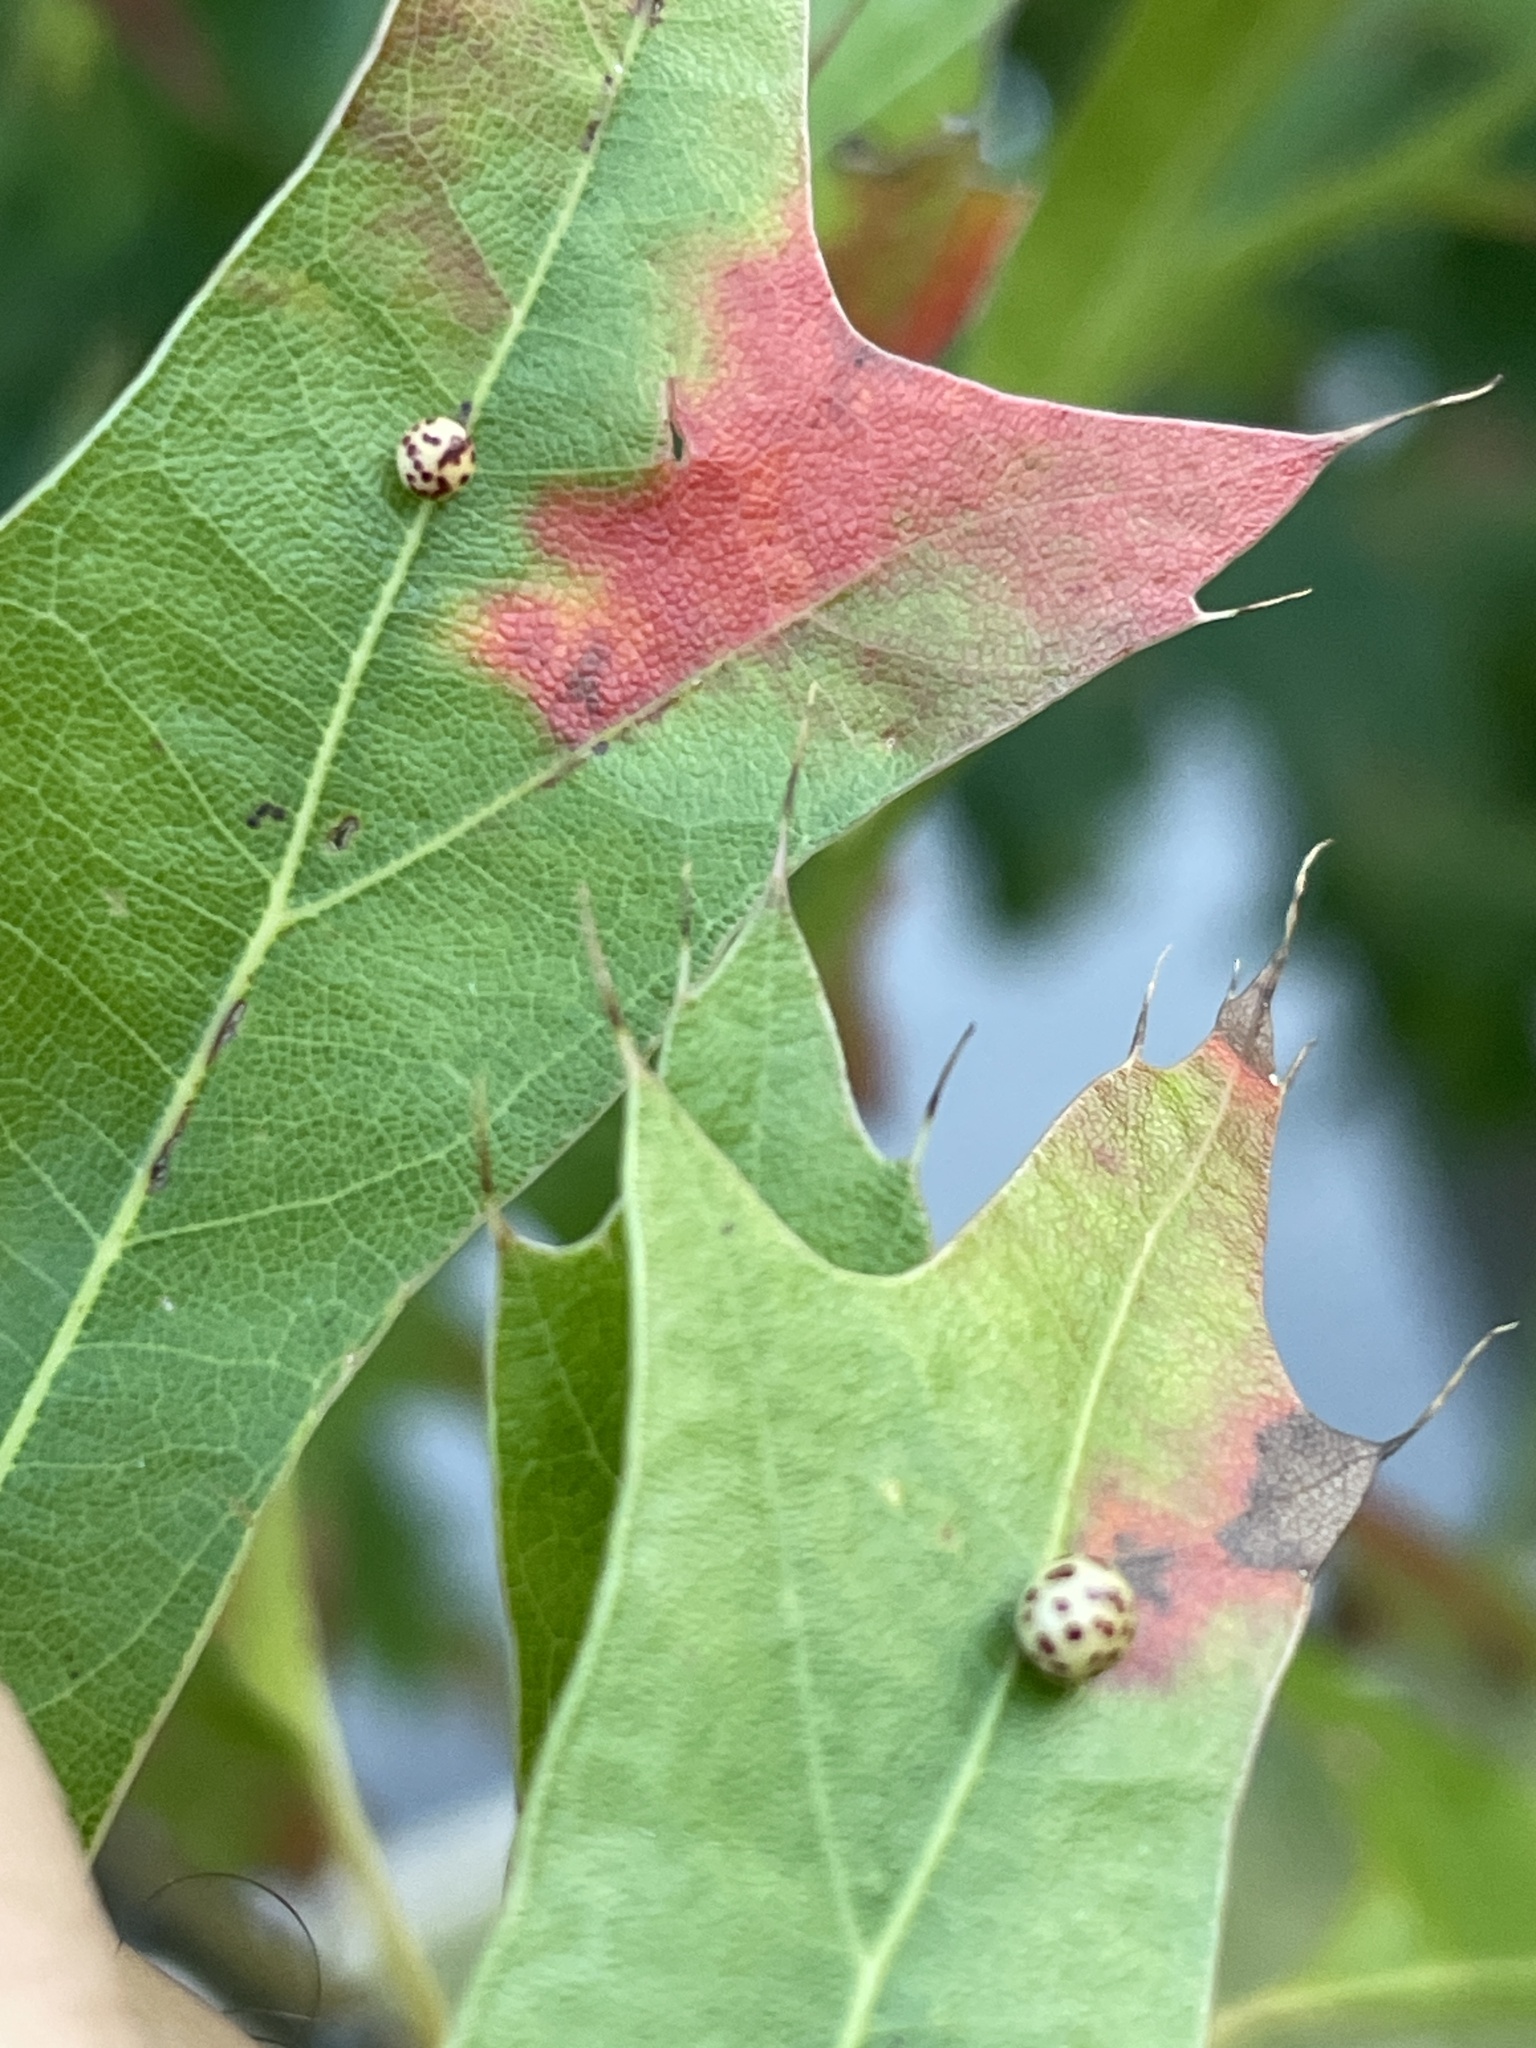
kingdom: Animalia
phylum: Arthropoda
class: Insecta
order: Hymenoptera
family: Cynipidae
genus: Zopheroteras
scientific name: Zopheroteras
